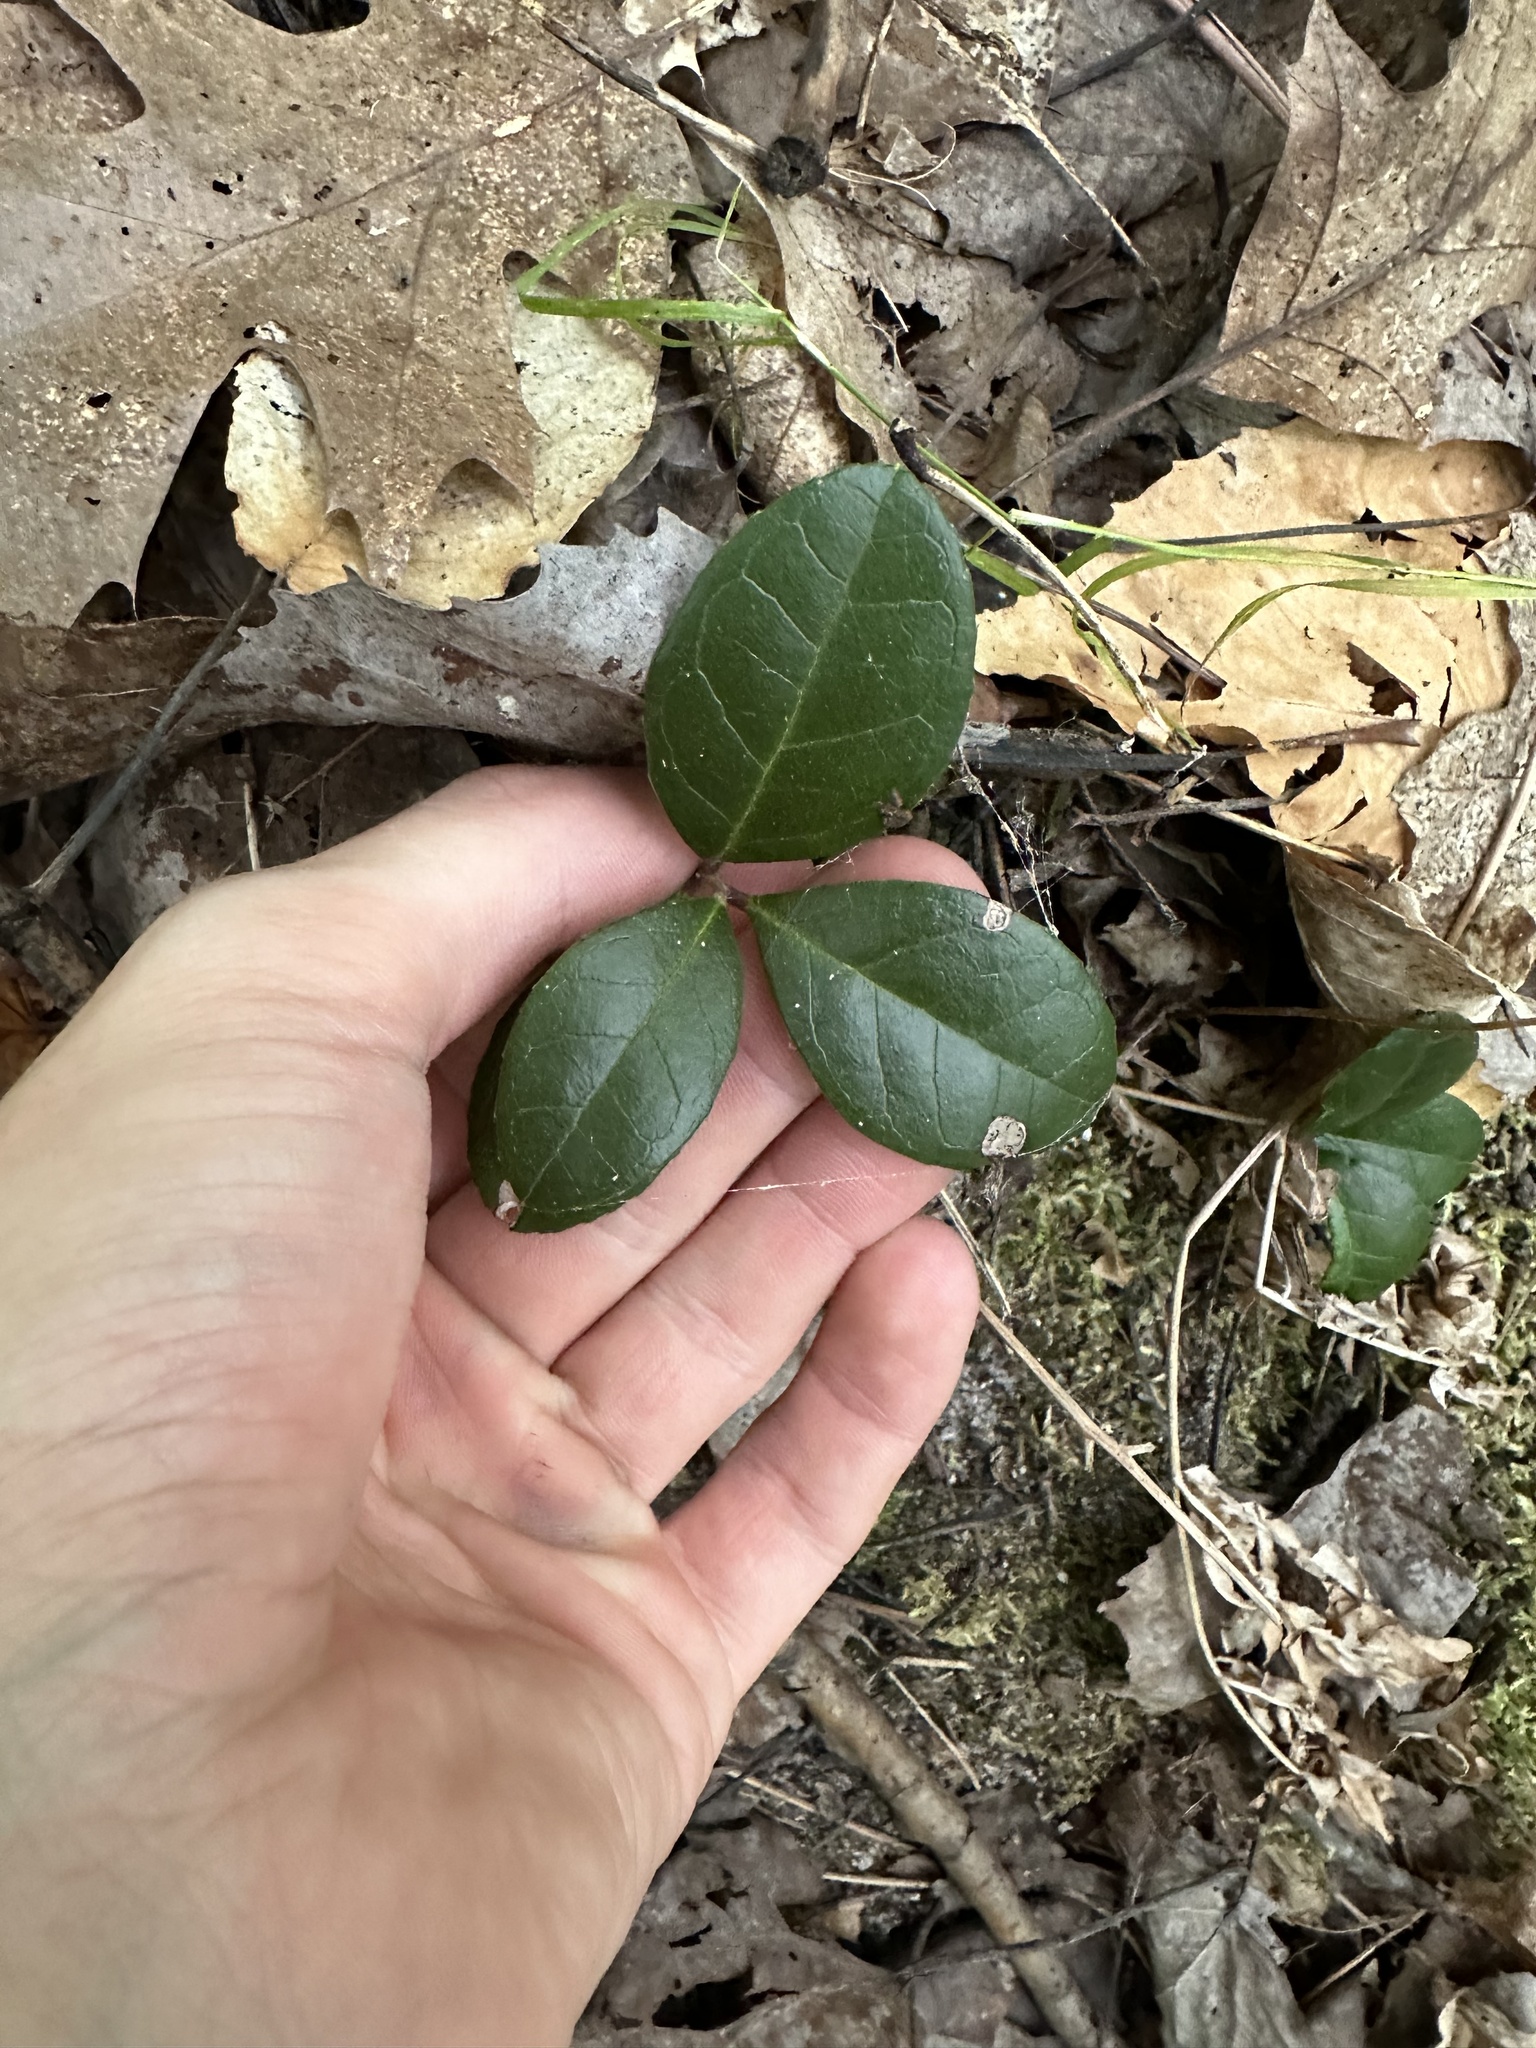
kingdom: Plantae
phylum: Tracheophyta
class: Magnoliopsida
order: Ericales
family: Ericaceae
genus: Gaultheria
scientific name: Gaultheria procumbens
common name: Checkerberry
